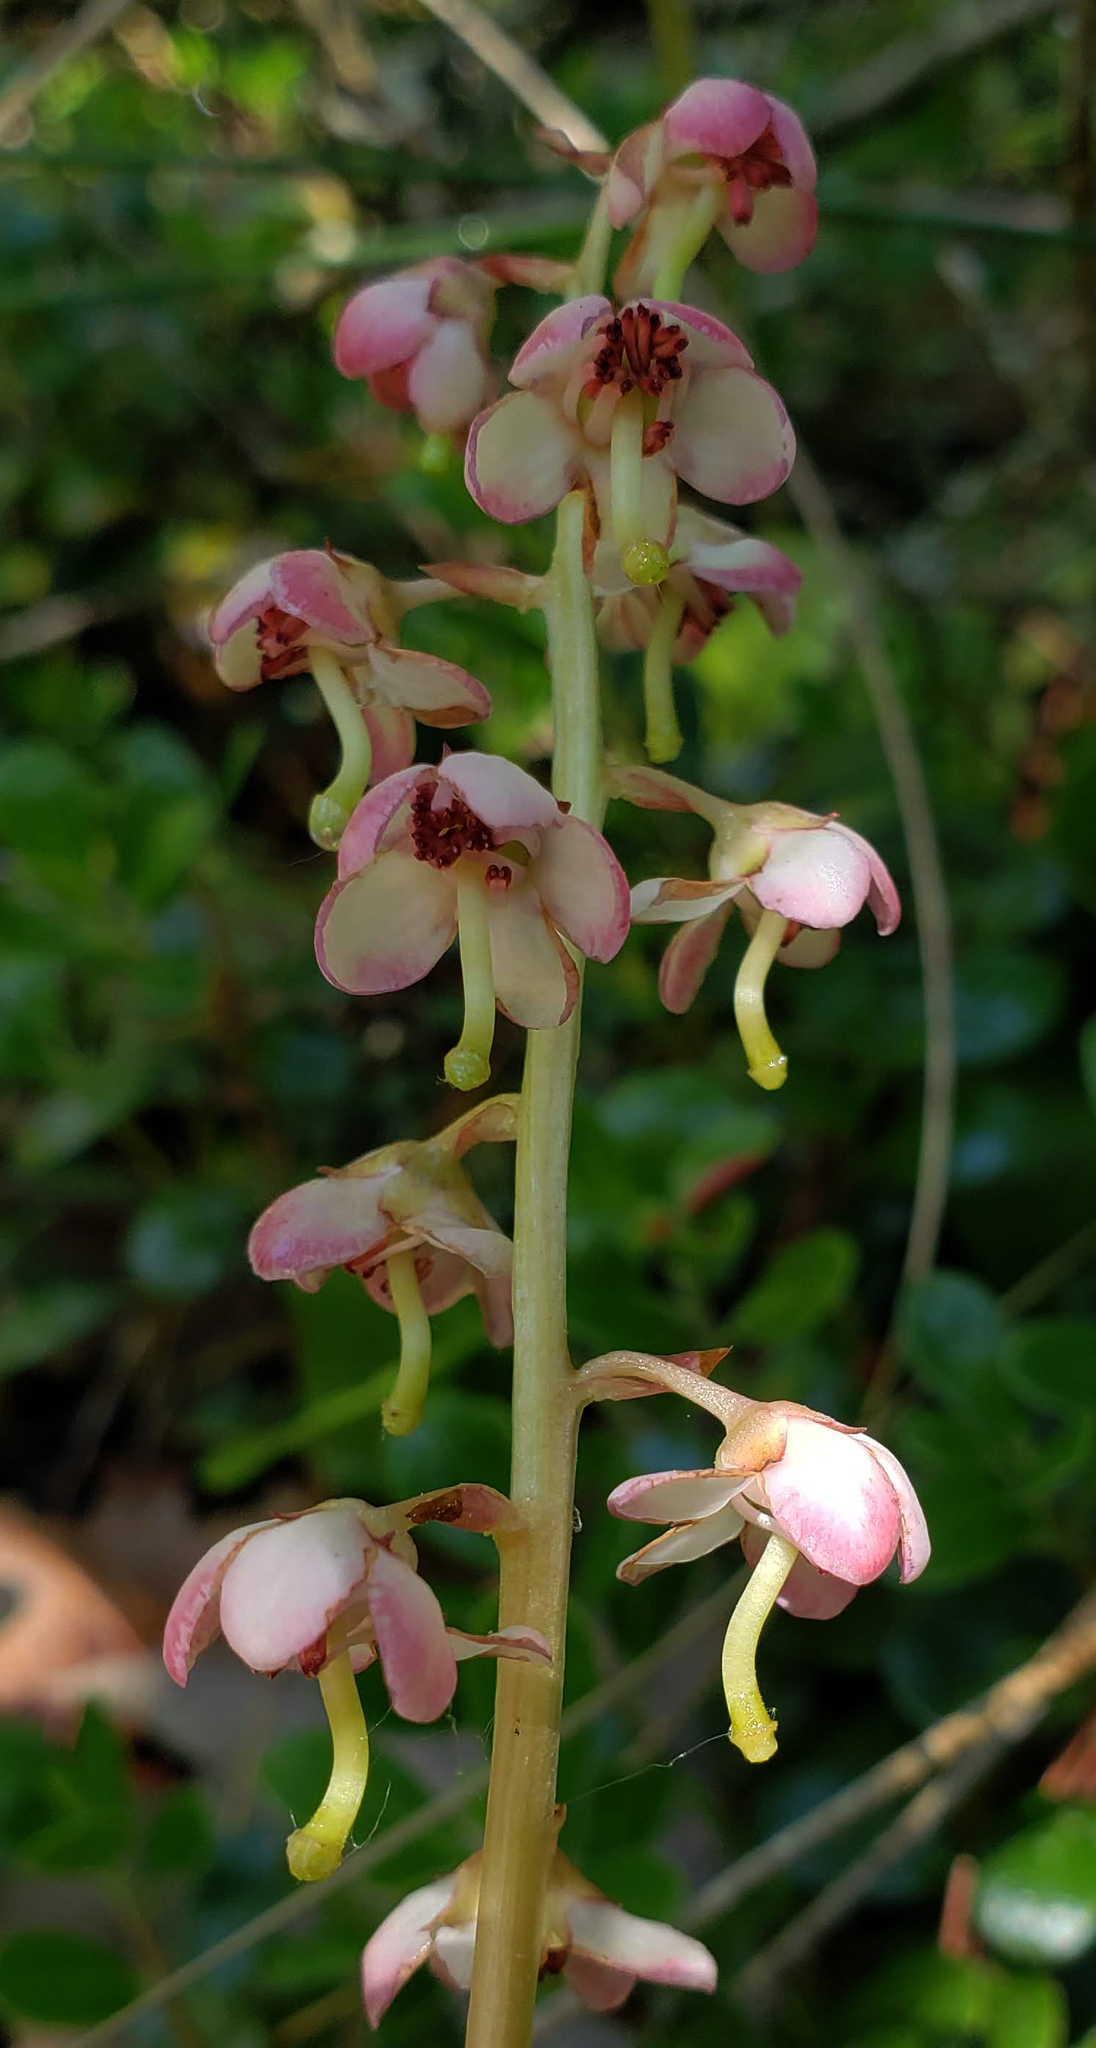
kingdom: Plantae
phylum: Tracheophyta
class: Magnoliopsida
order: Ericales
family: Ericaceae
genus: Pyrola
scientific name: Pyrola asarifolia
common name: Bog wintergreen
